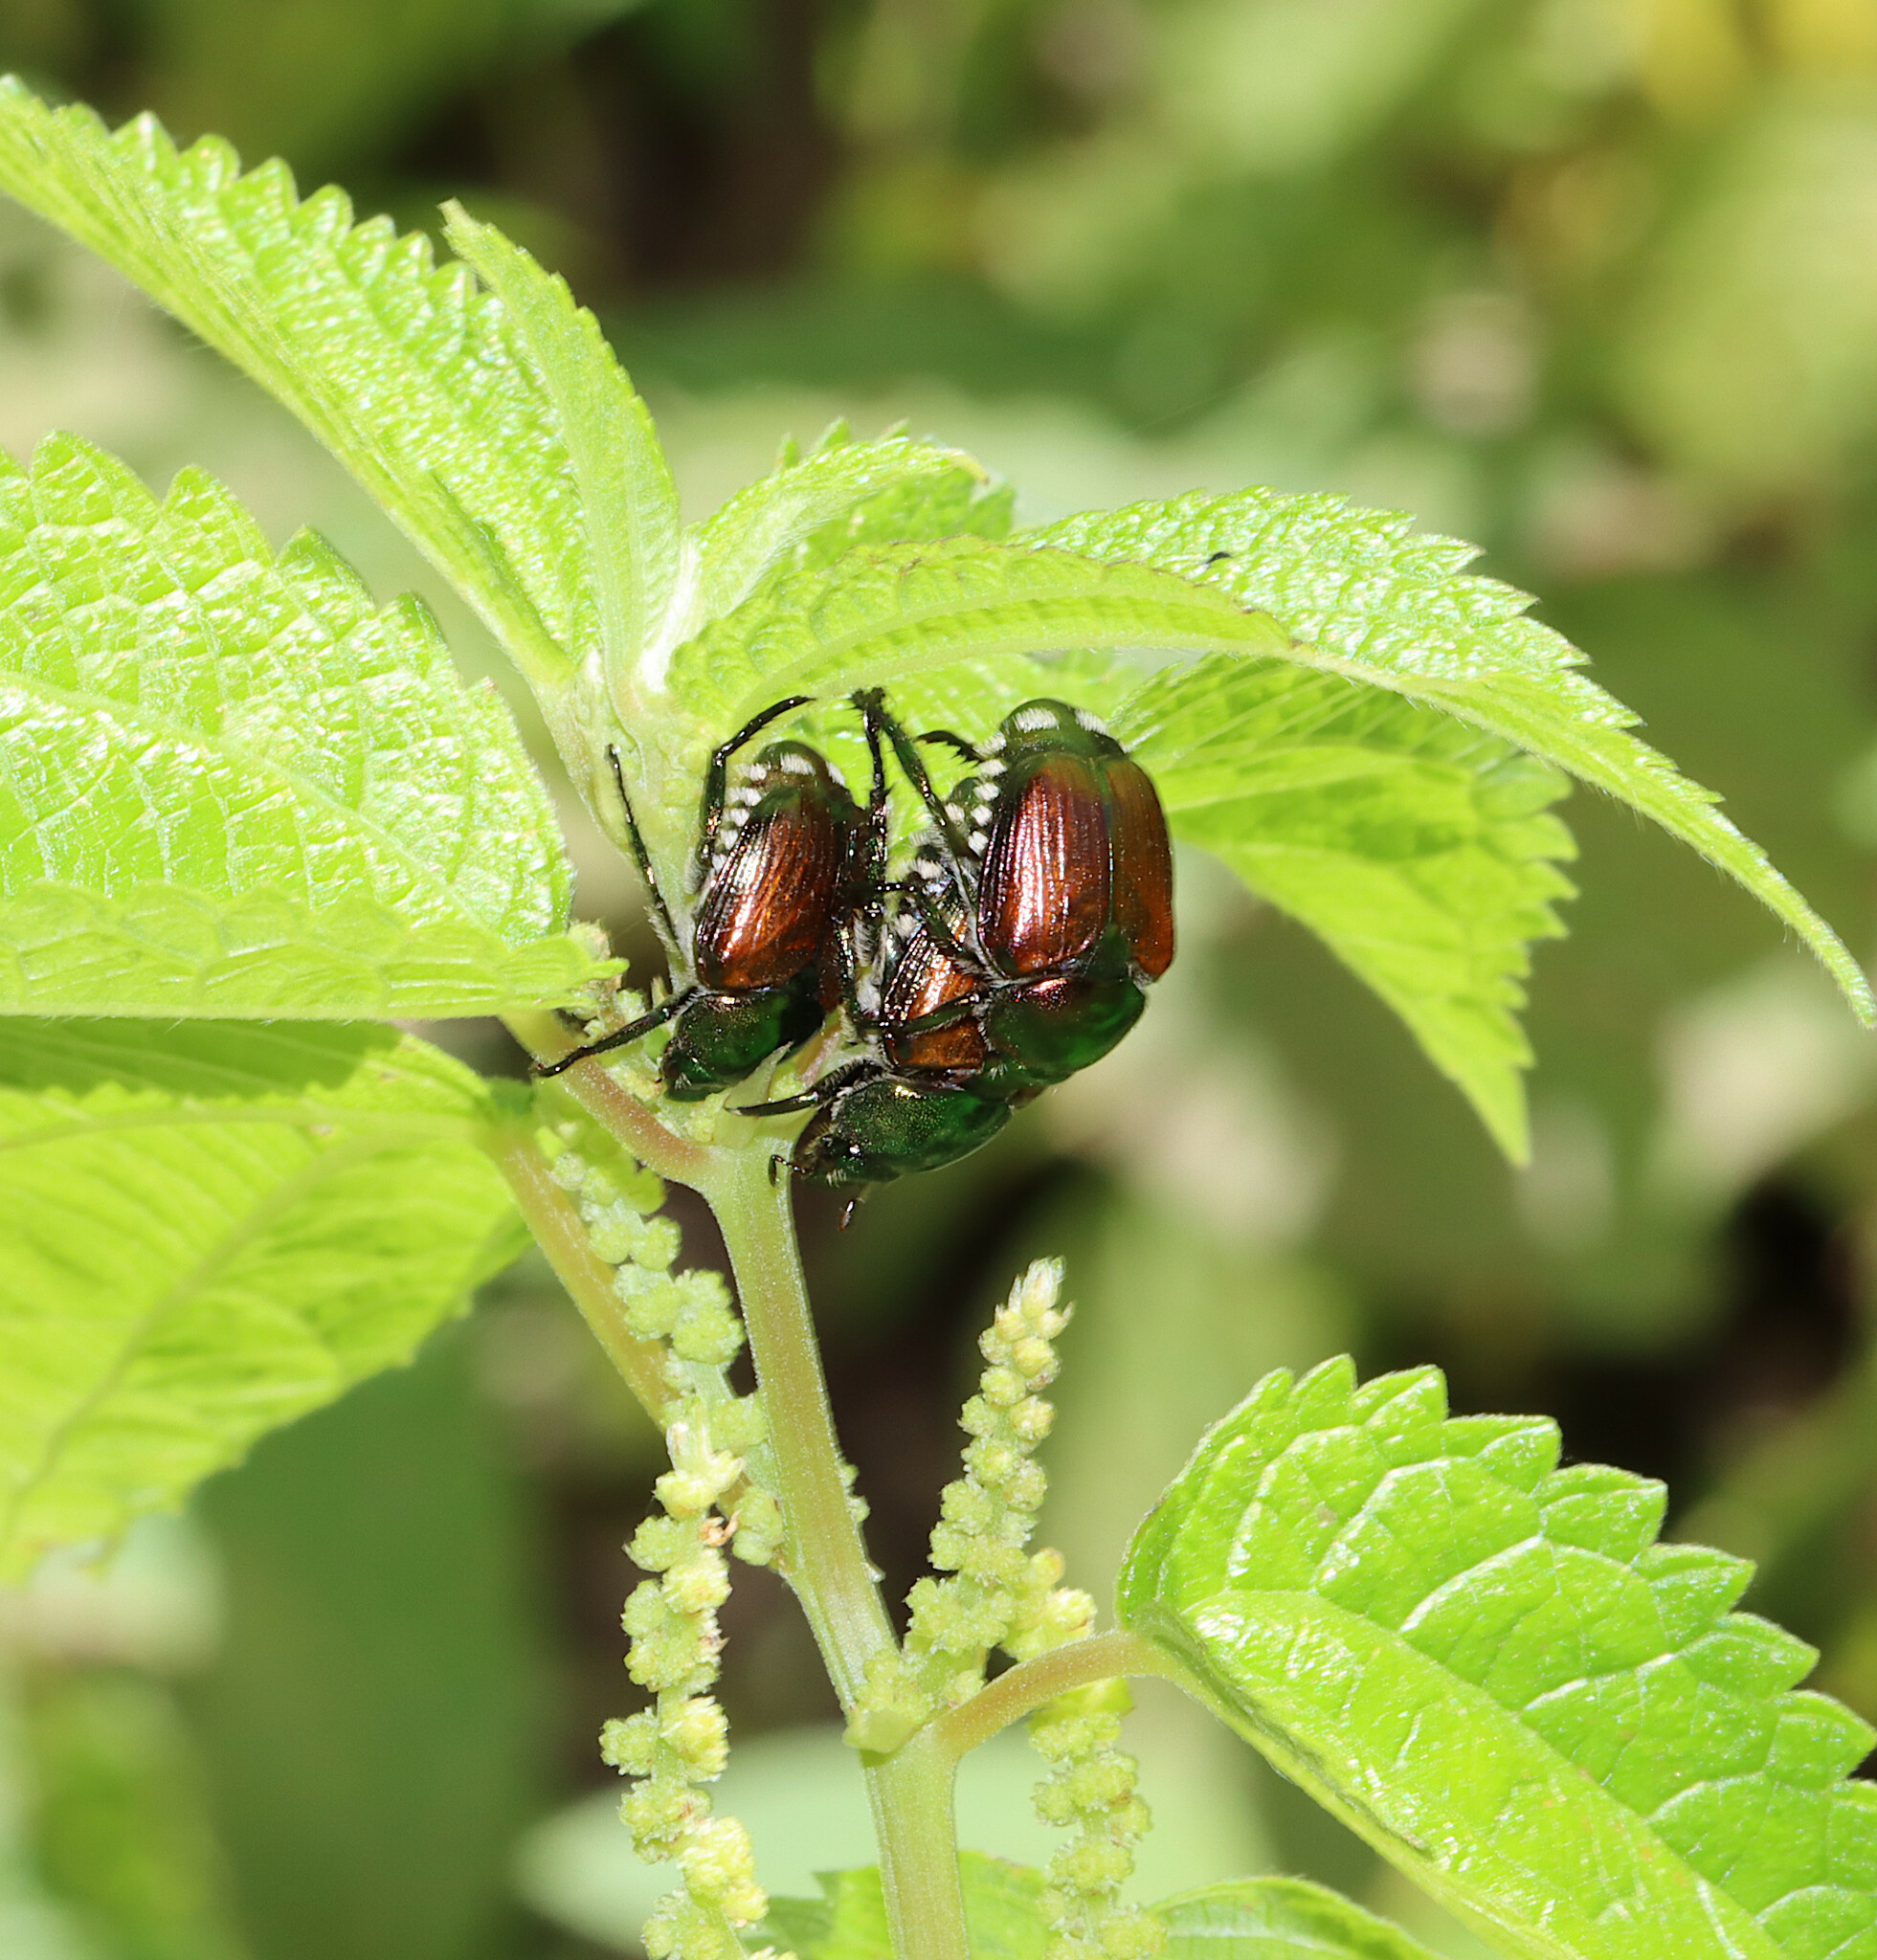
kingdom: Animalia
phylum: Arthropoda
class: Insecta
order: Coleoptera
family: Scarabaeidae
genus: Popillia
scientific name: Popillia japonica
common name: Japanese beetle
